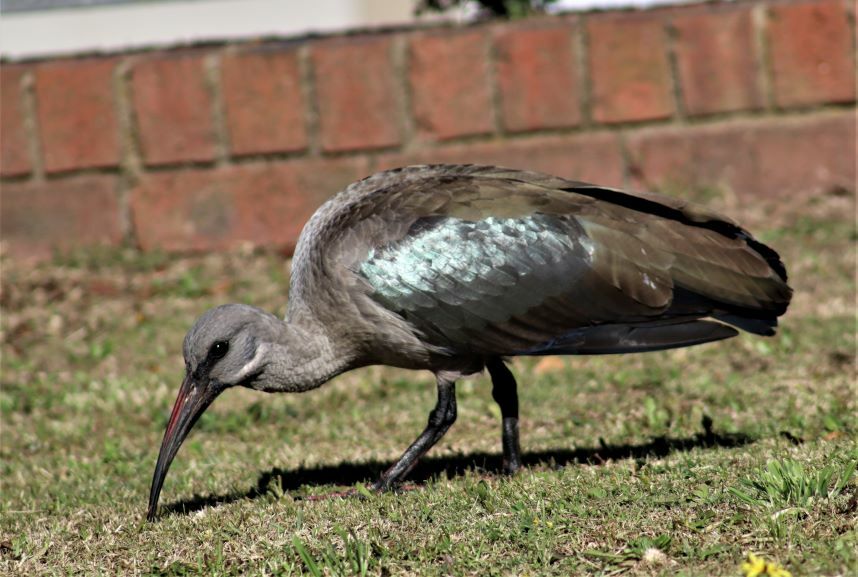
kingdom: Animalia
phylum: Chordata
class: Aves
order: Pelecaniformes
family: Threskiornithidae
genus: Bostrychia
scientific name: Bostrychia hagedash
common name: Hadada ibis
